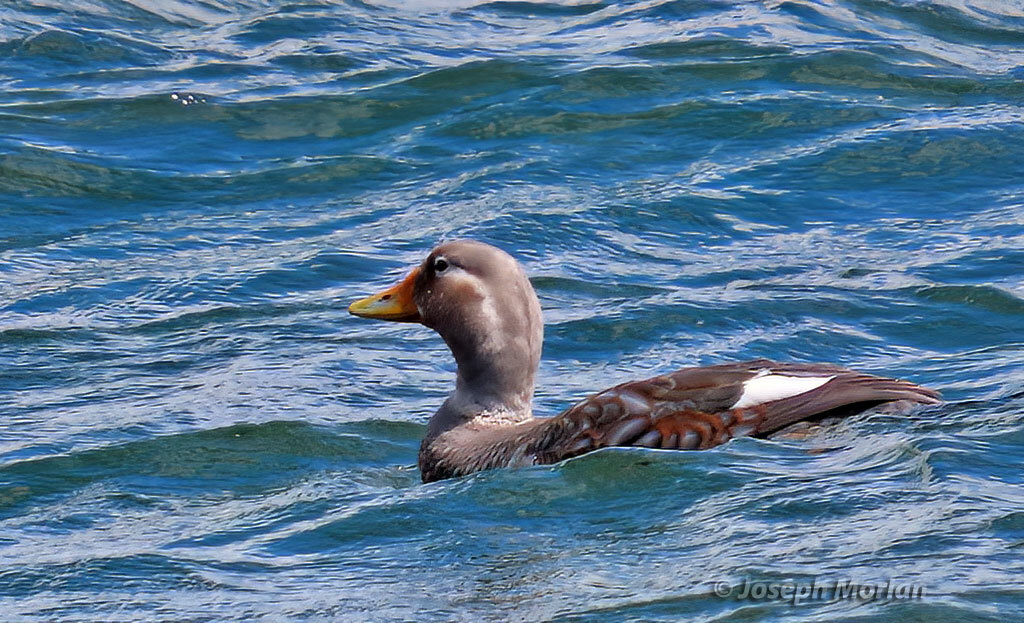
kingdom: Animalia
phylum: Chordata
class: Aves
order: Anseriformes
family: Anatidae
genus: Tachyeres
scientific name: Tachyeres patachonicus
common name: Flying steamer duck
